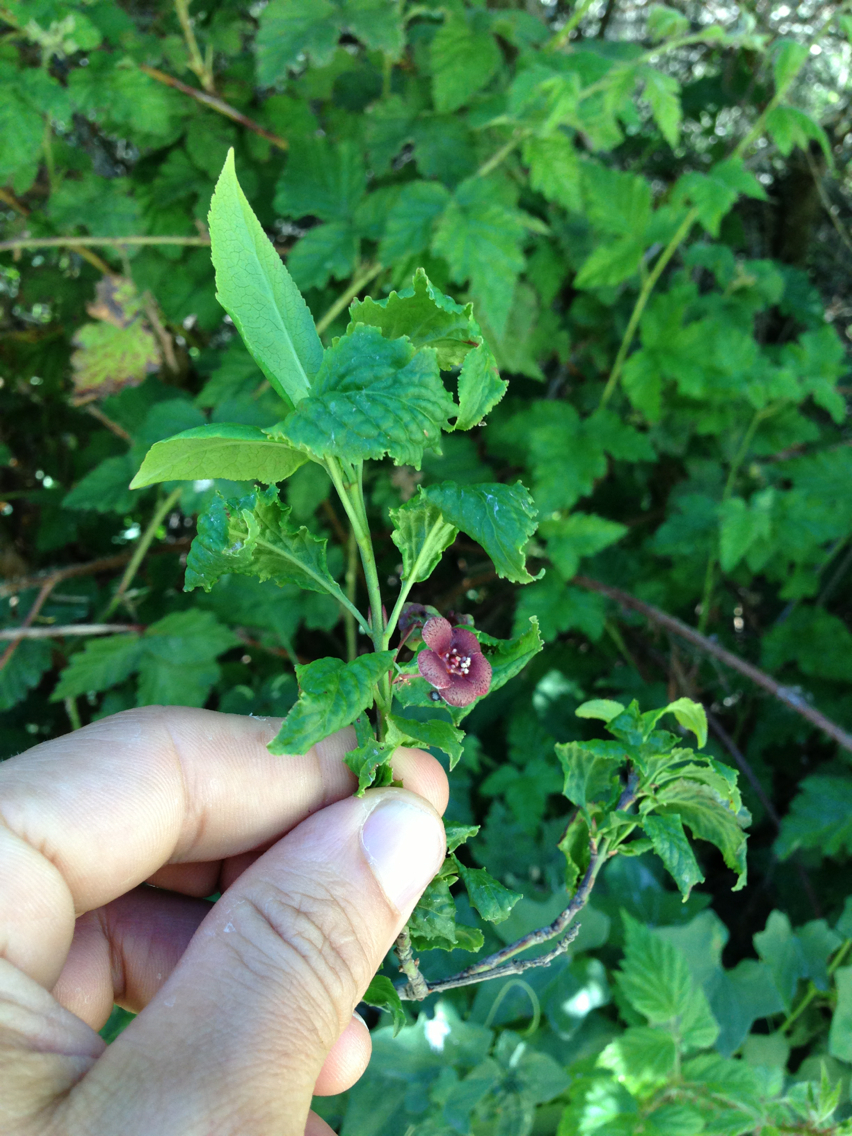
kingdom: Plantae
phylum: Tracheophyta
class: Magnoliopsida
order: Celastrales
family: Celastraceae
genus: Euonymus
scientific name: Euonymus occidentalis
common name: Western burningbush
